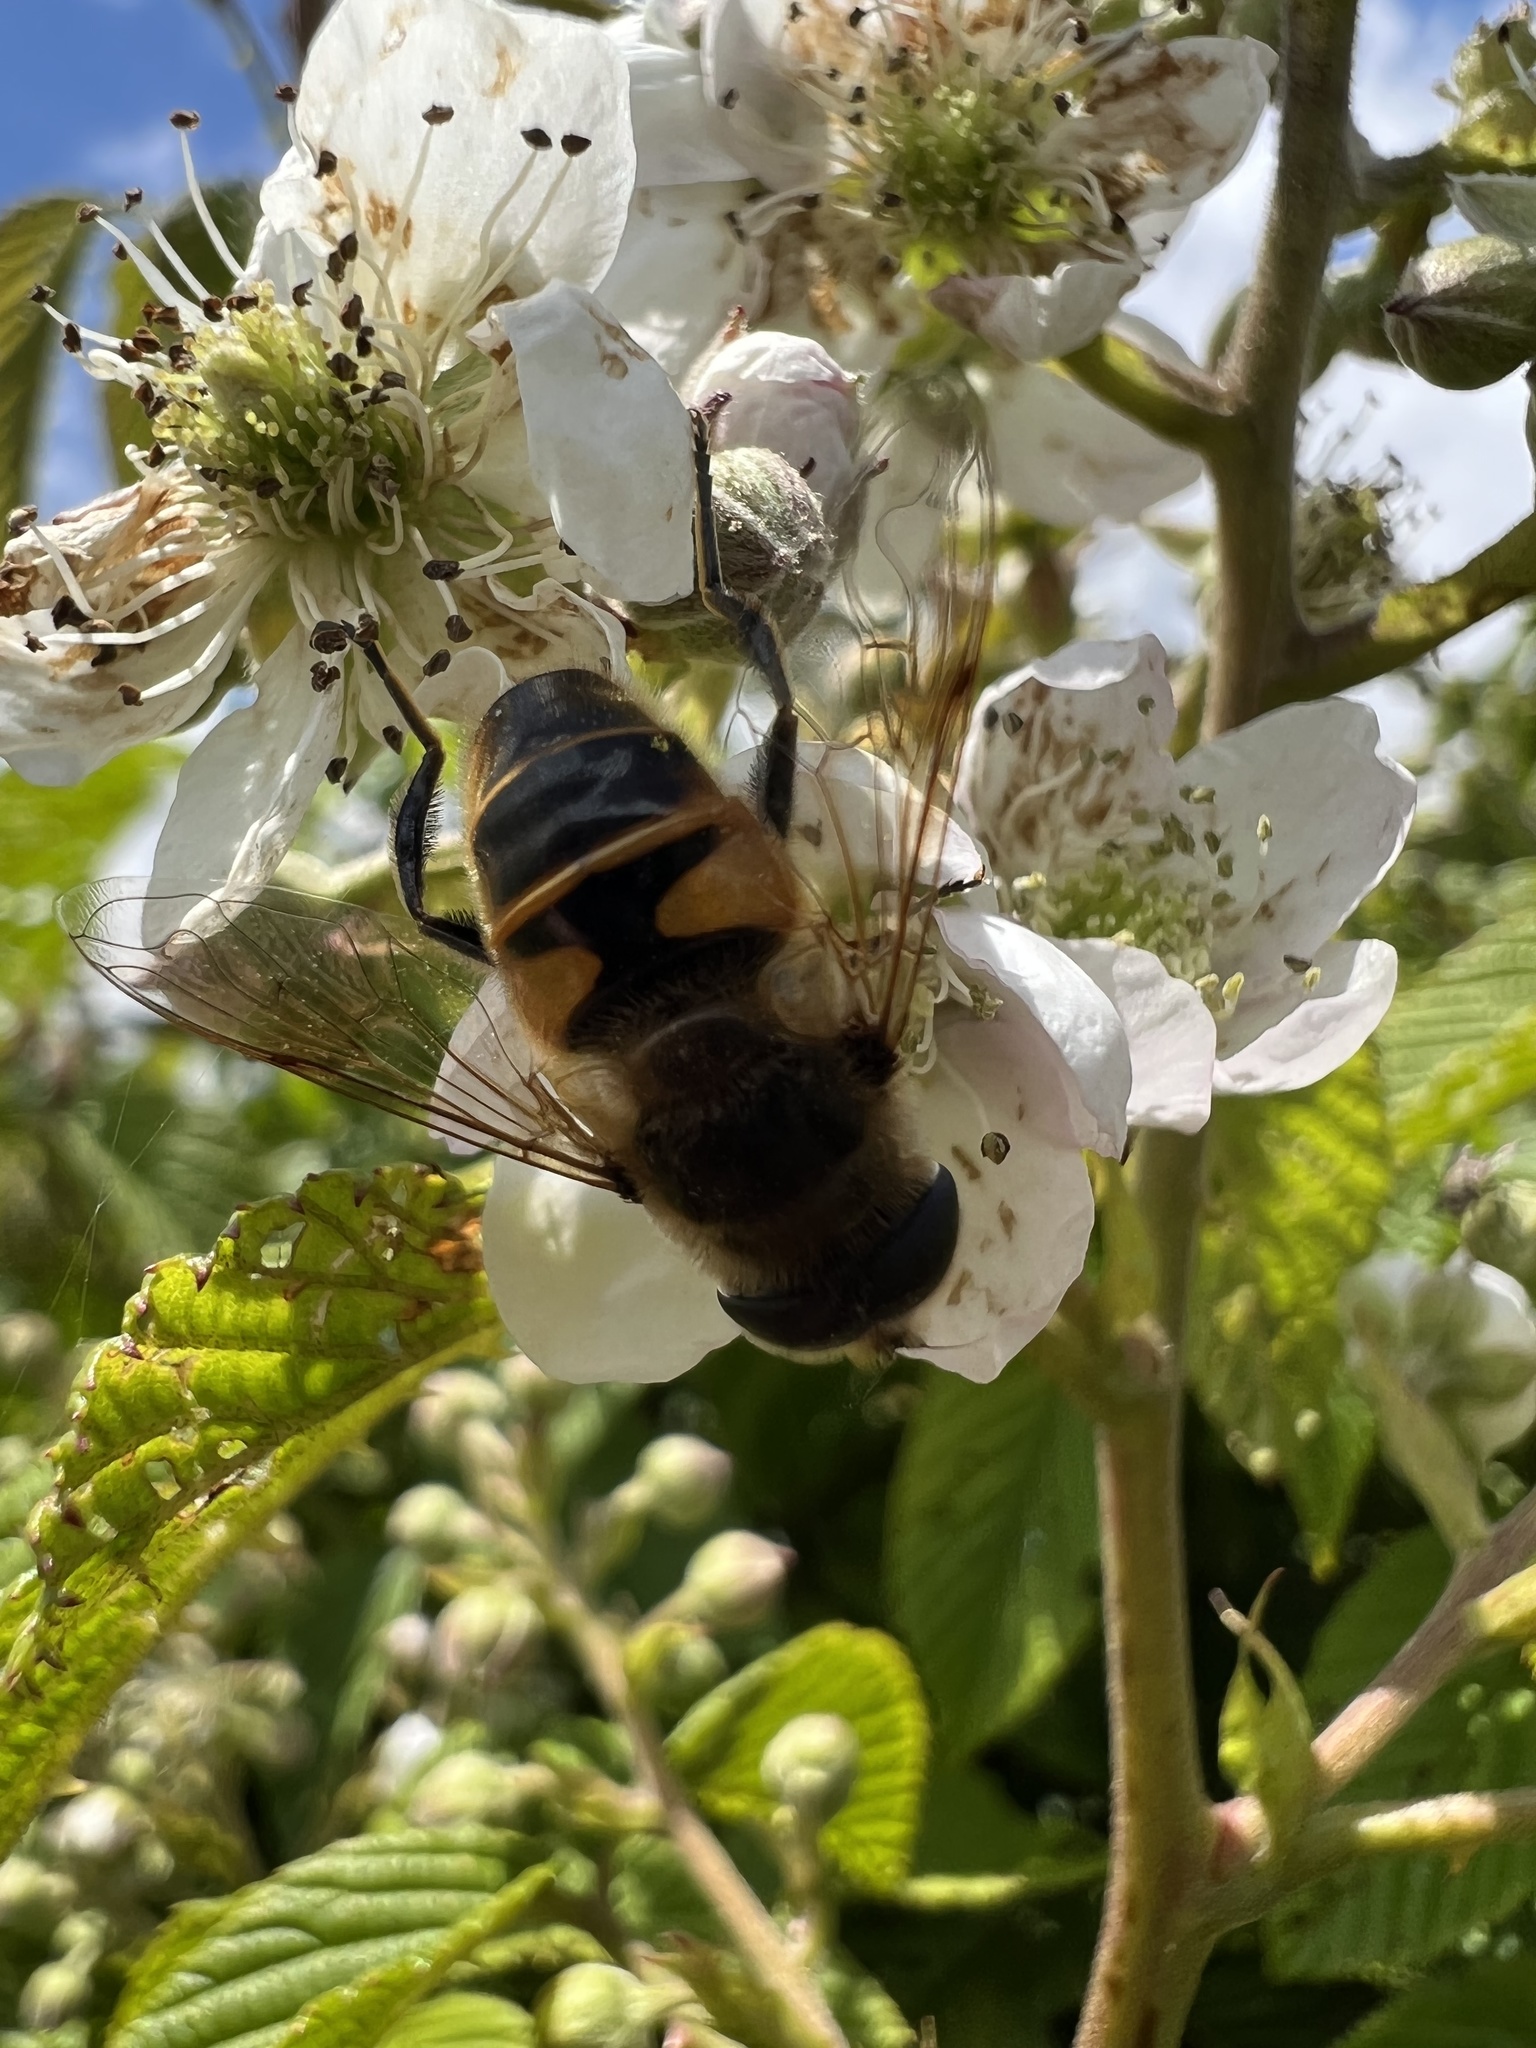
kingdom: Animalia
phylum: Arthropoda
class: Insecta
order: Diptera
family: Syrphidae
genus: Eristalis
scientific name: Eristalis tenax
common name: Drone fly
